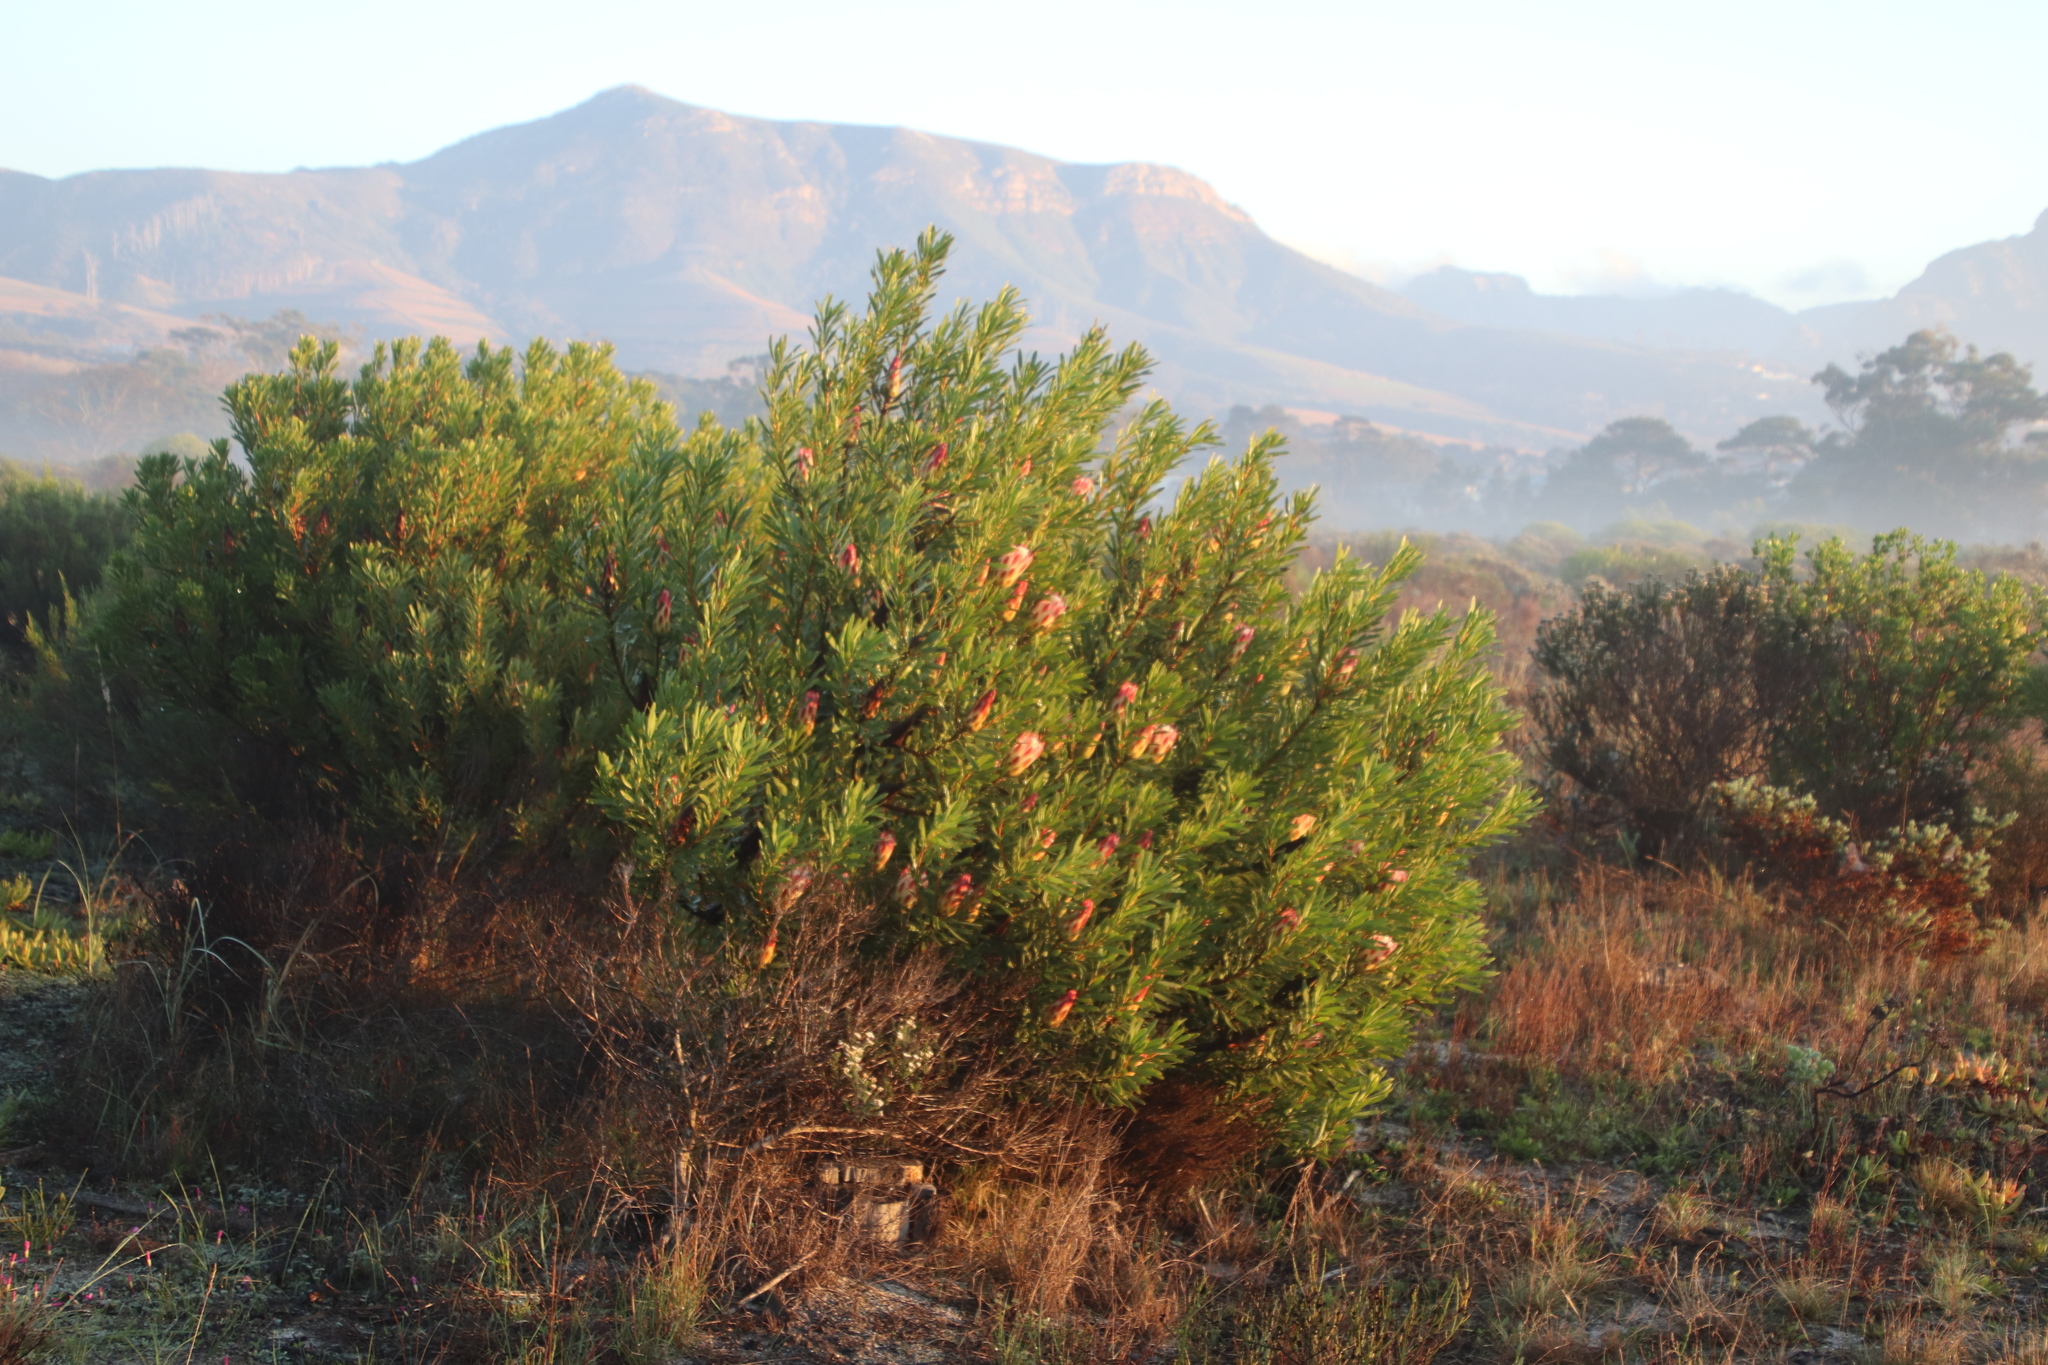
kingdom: Plantae
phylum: Tracheophyta
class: Magnoliopsida
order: Proteales
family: Proteaceae
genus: Protea
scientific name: Protea repens
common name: Sugarbush
